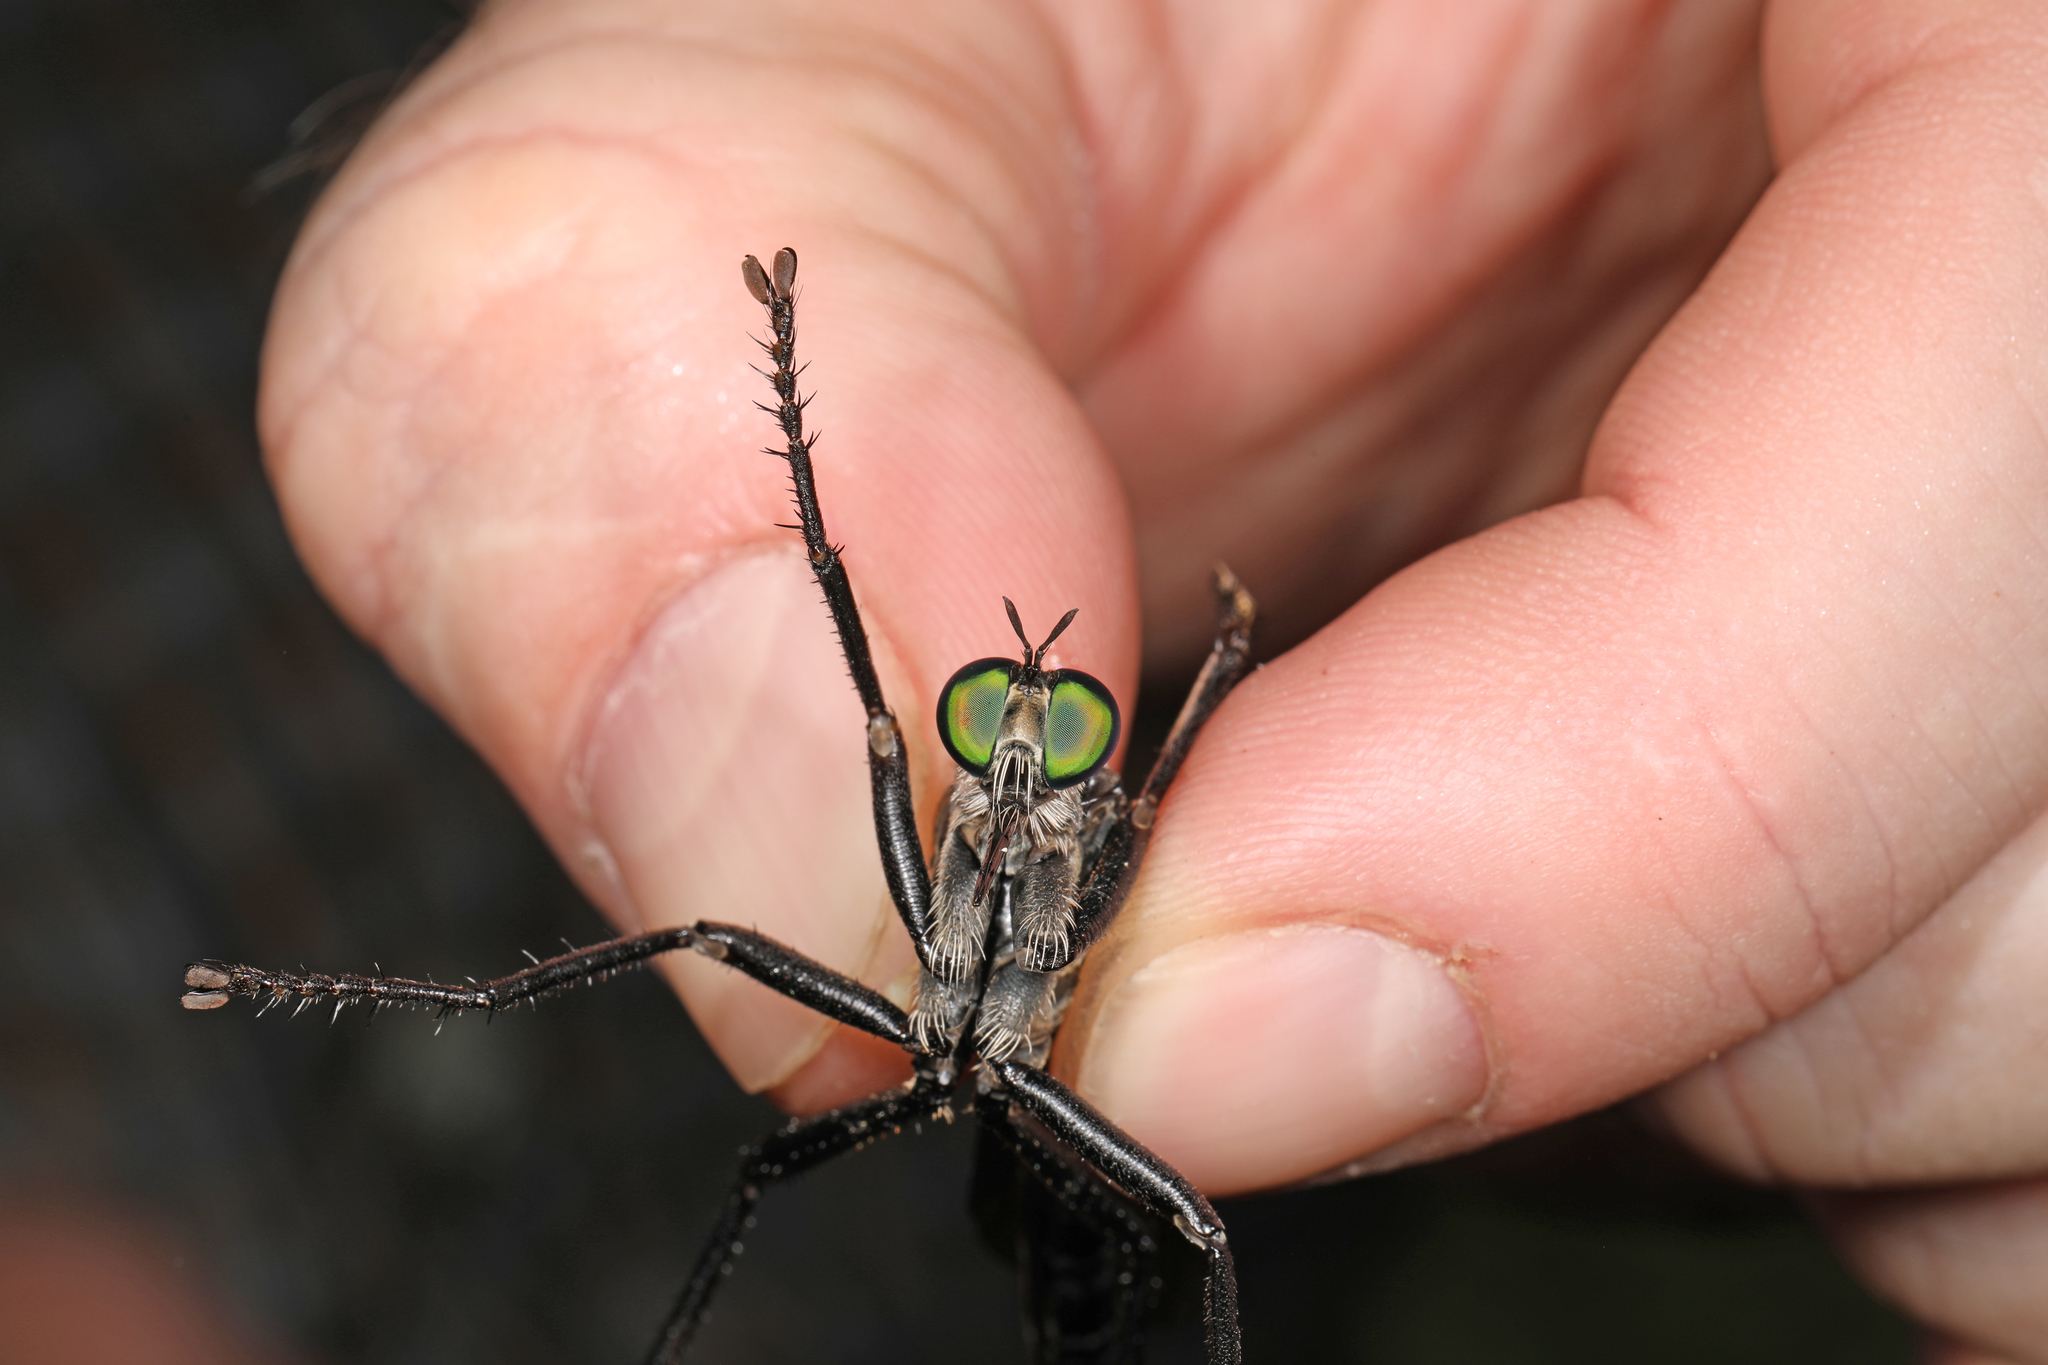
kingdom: Animalia
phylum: Arthropoda
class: Insecta
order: Diptera
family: Asilidae
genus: Microstylum
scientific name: Microstylum morosum
